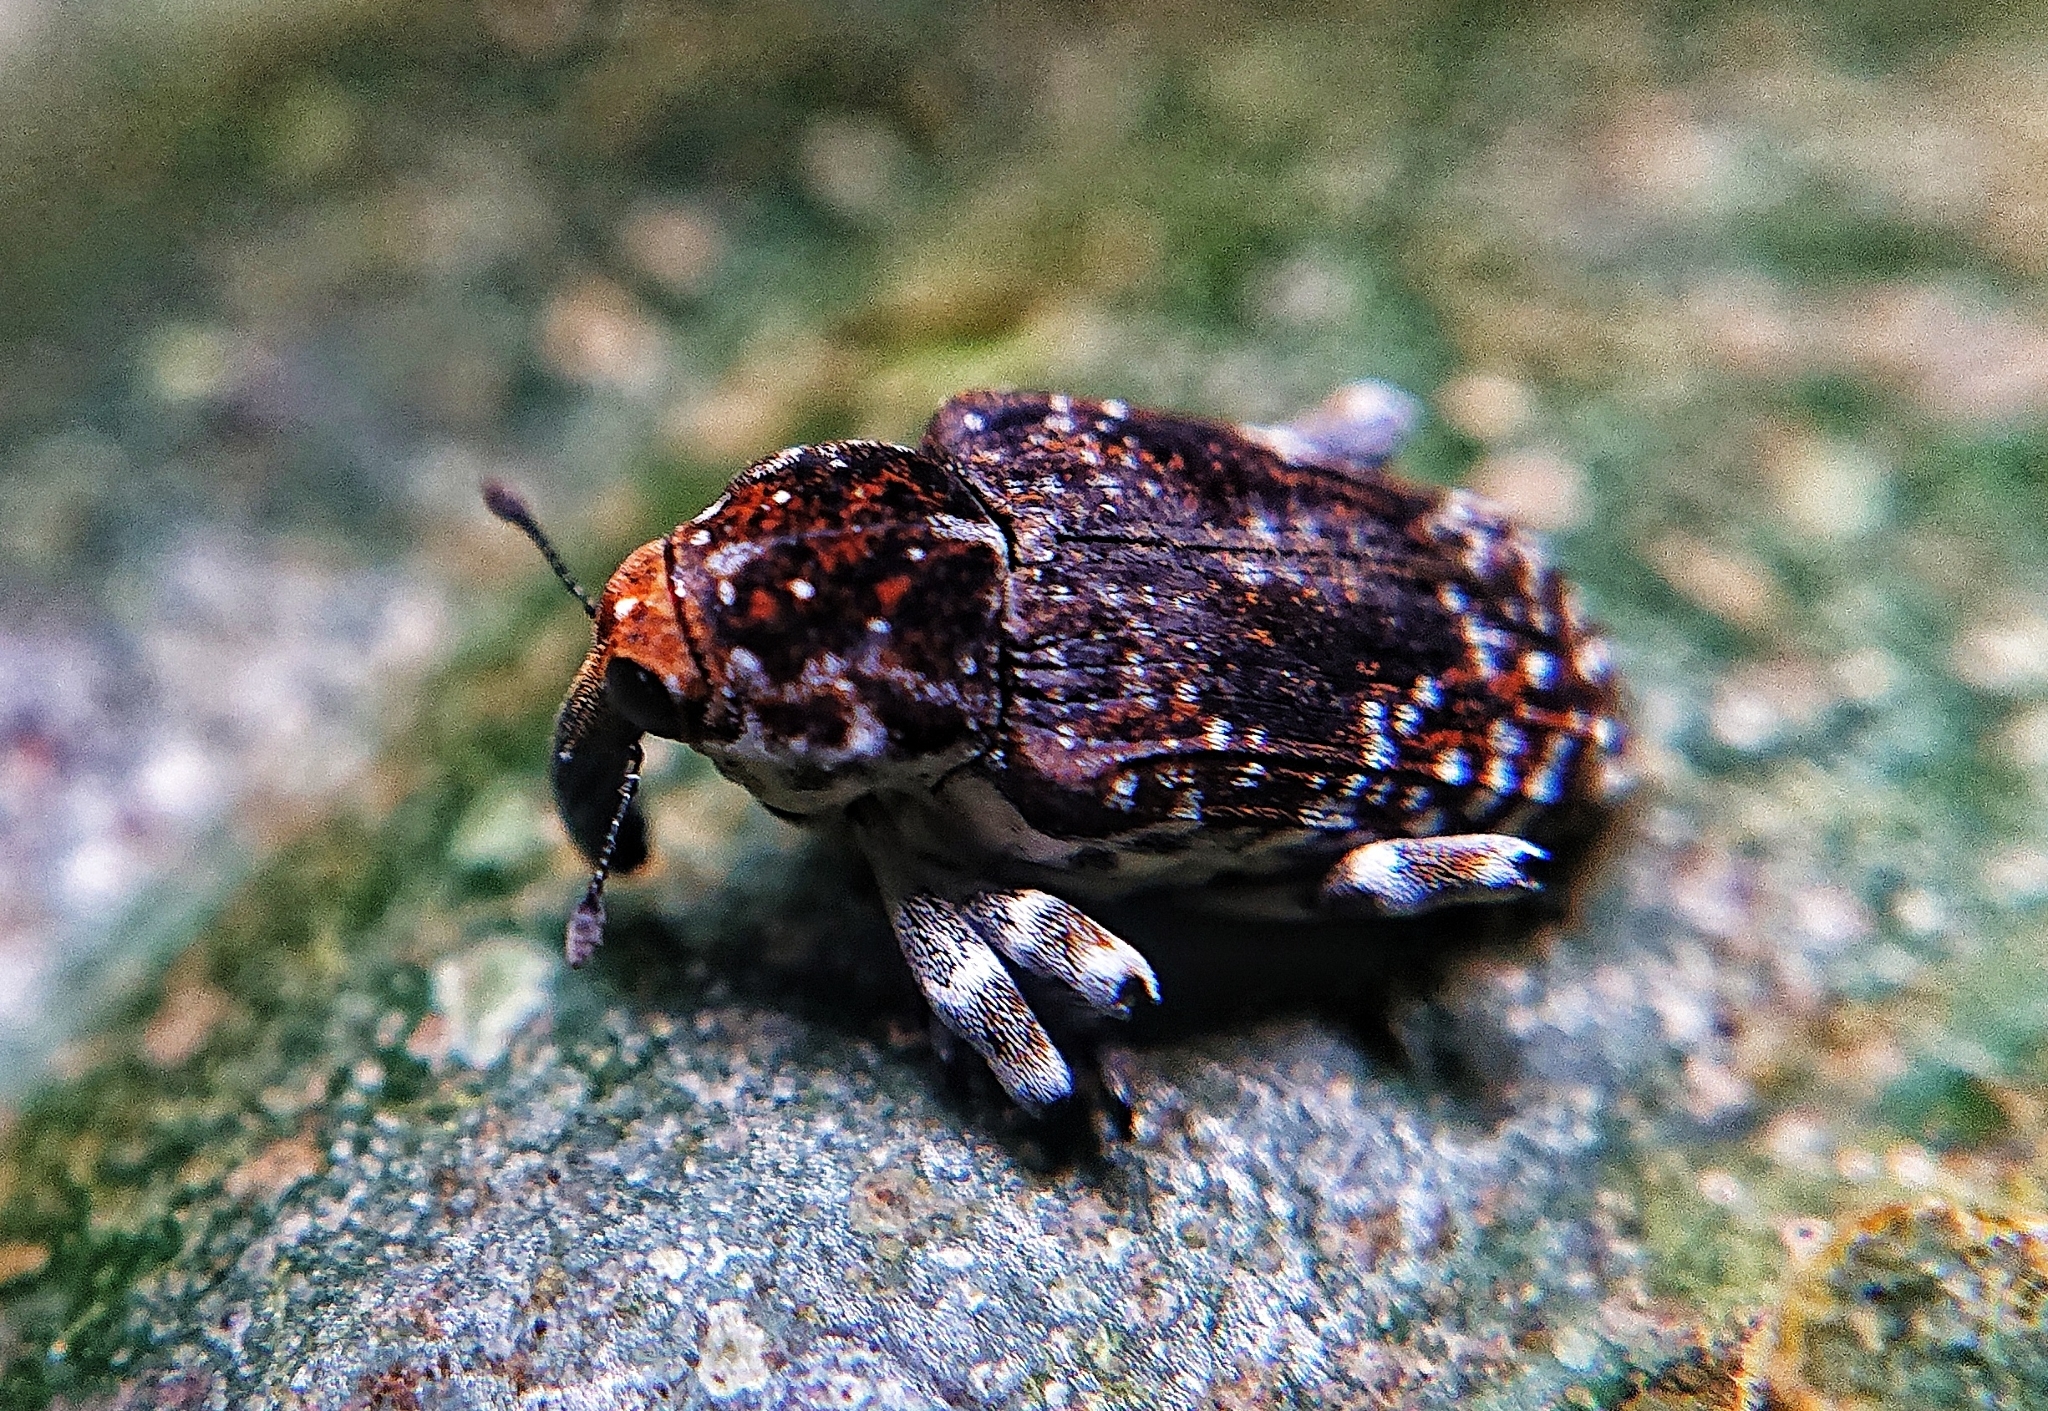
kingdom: Animalia
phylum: Arthropoda
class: Insecta
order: Coleoptera
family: Curculionidae
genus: Peridinetus
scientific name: Peridinetus irroratus
